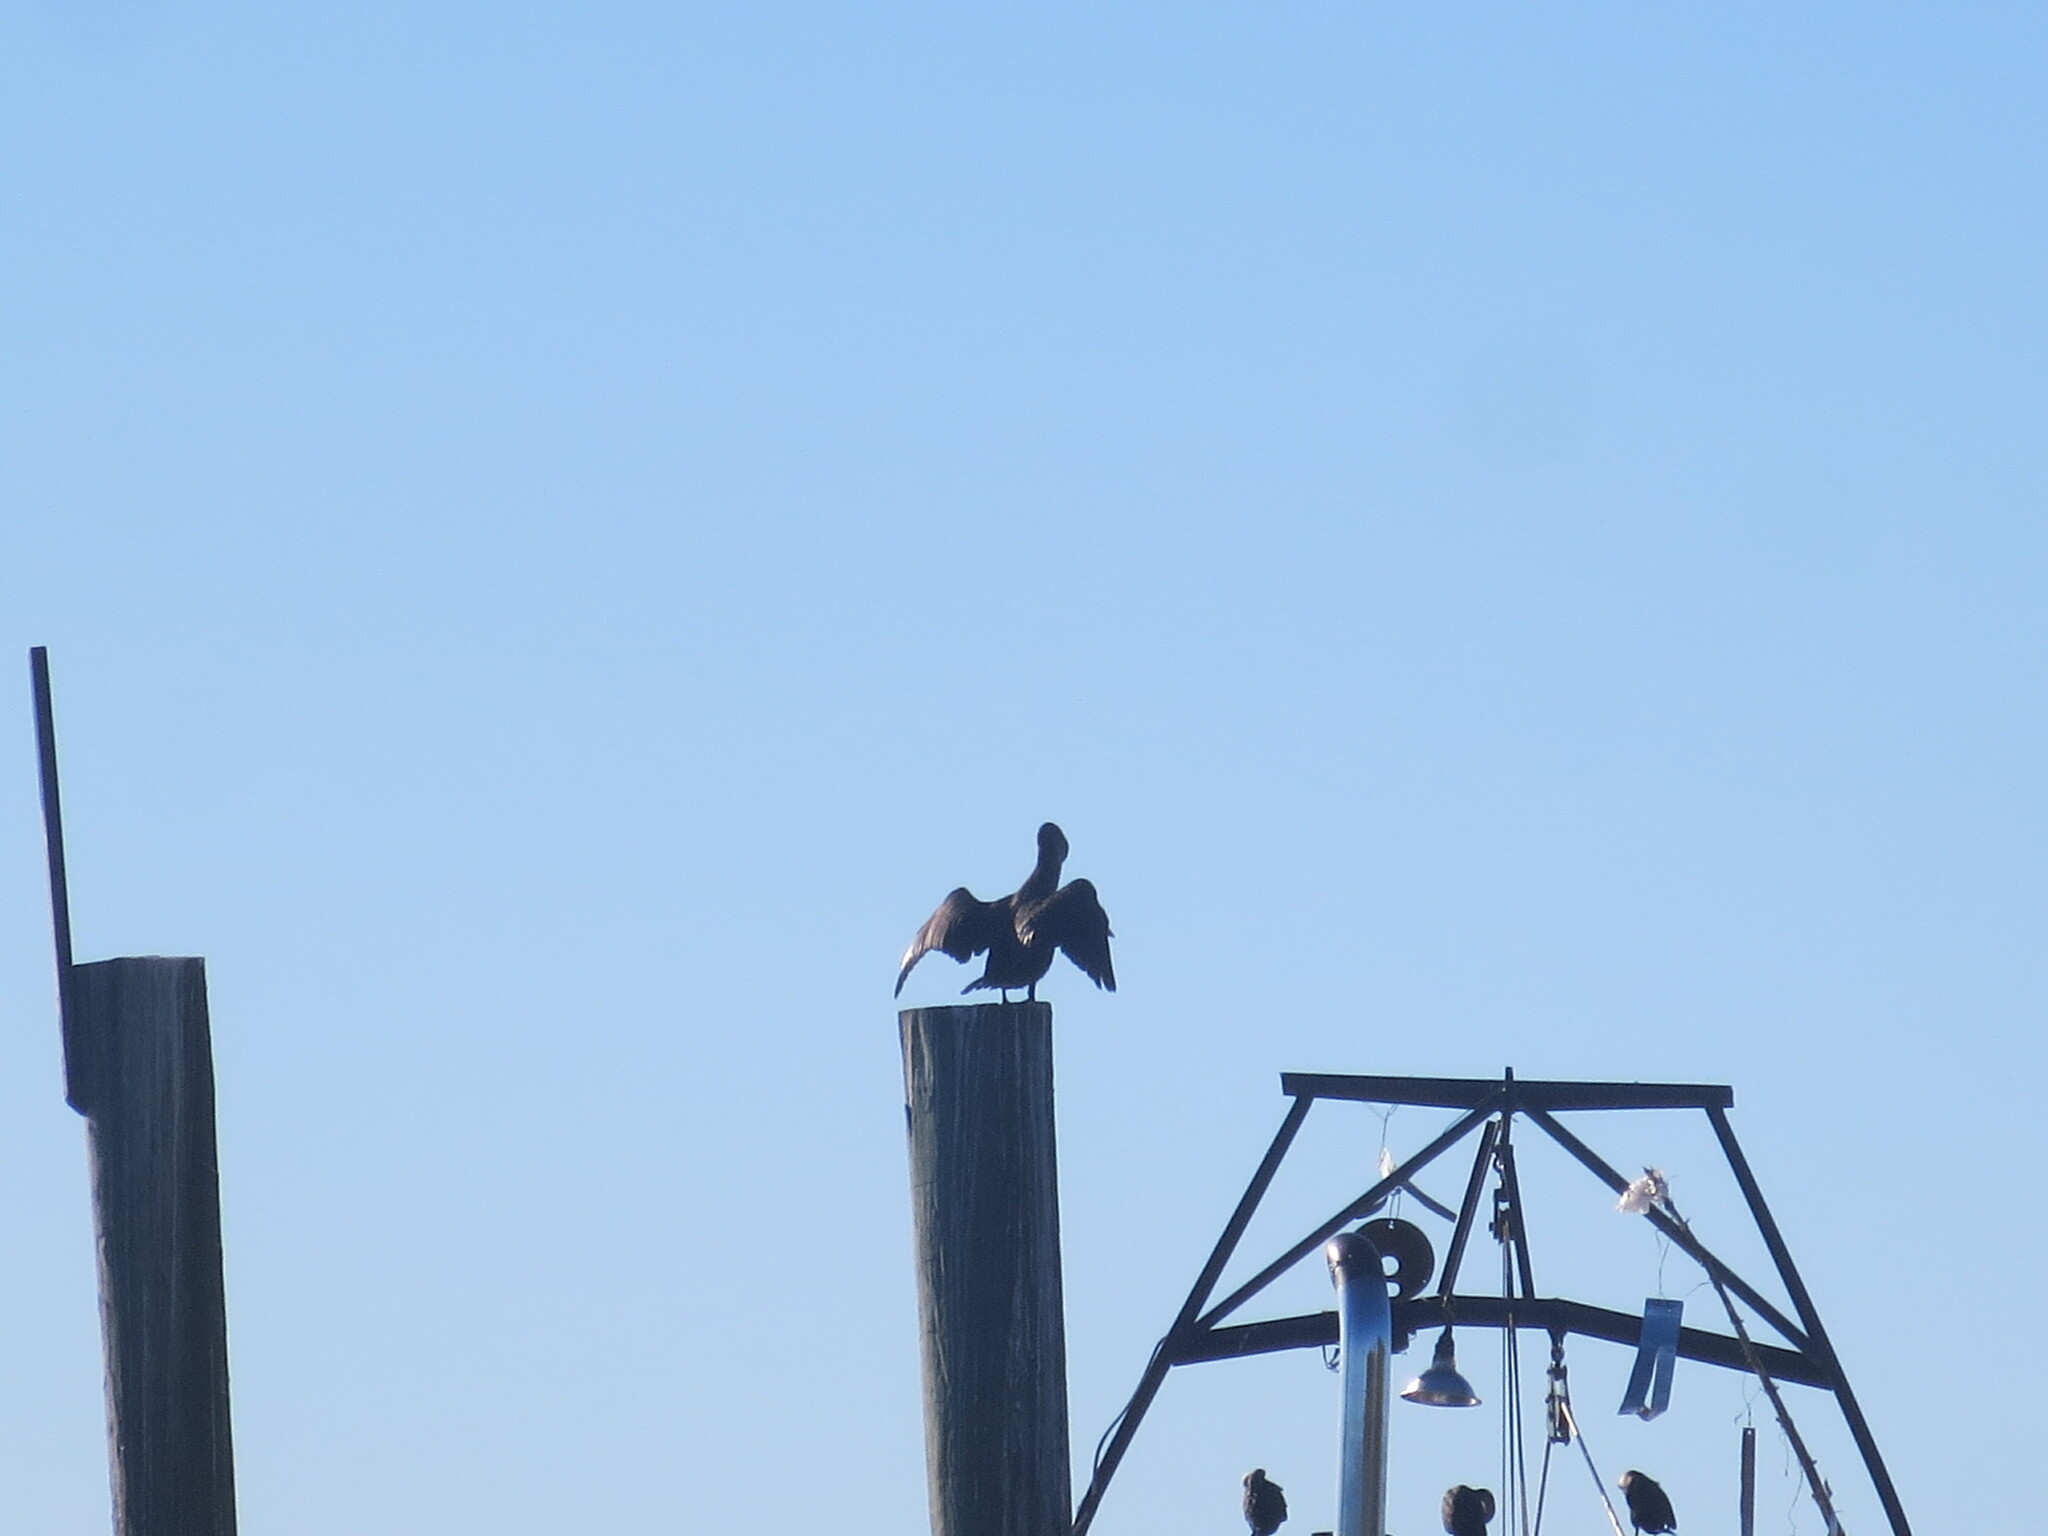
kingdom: Animalia
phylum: Chordata
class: Aves
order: Suliformes
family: Phalacrocoracidae
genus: Phalacrocorax
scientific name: Phalacrocorax auritus
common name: Double-crested cormorant
